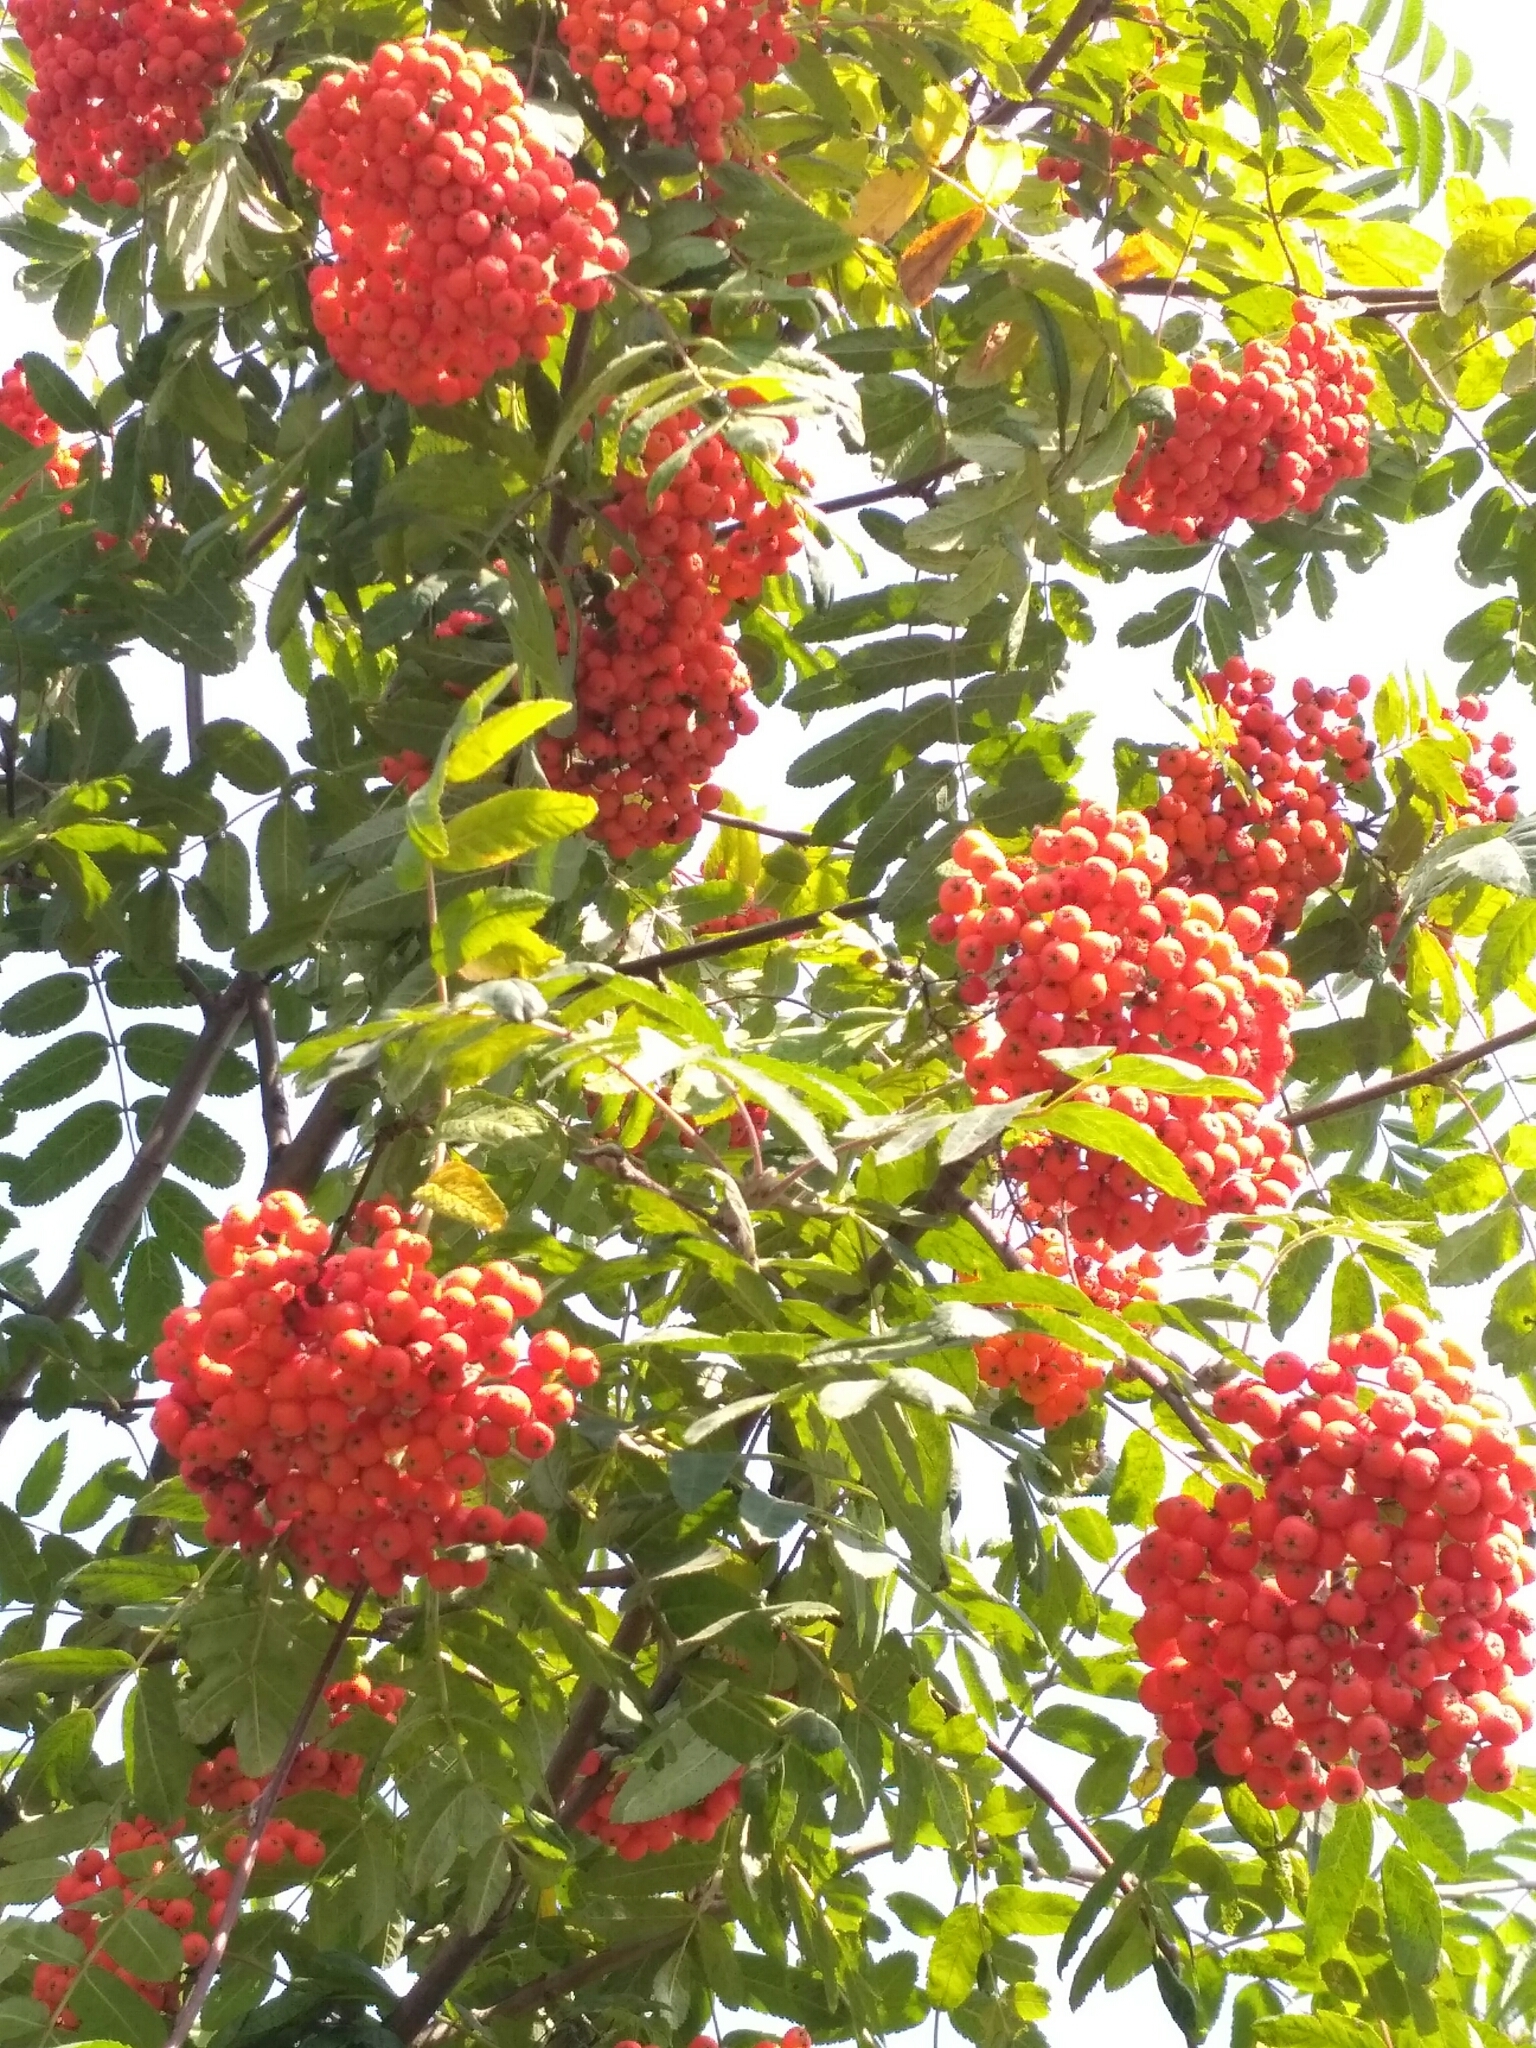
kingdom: Plantae
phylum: Tracheophyta
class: Magnoliopsida
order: Rosales
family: Rosaceae
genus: Sorbus
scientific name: Sorbus aucuparia
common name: Rowan
